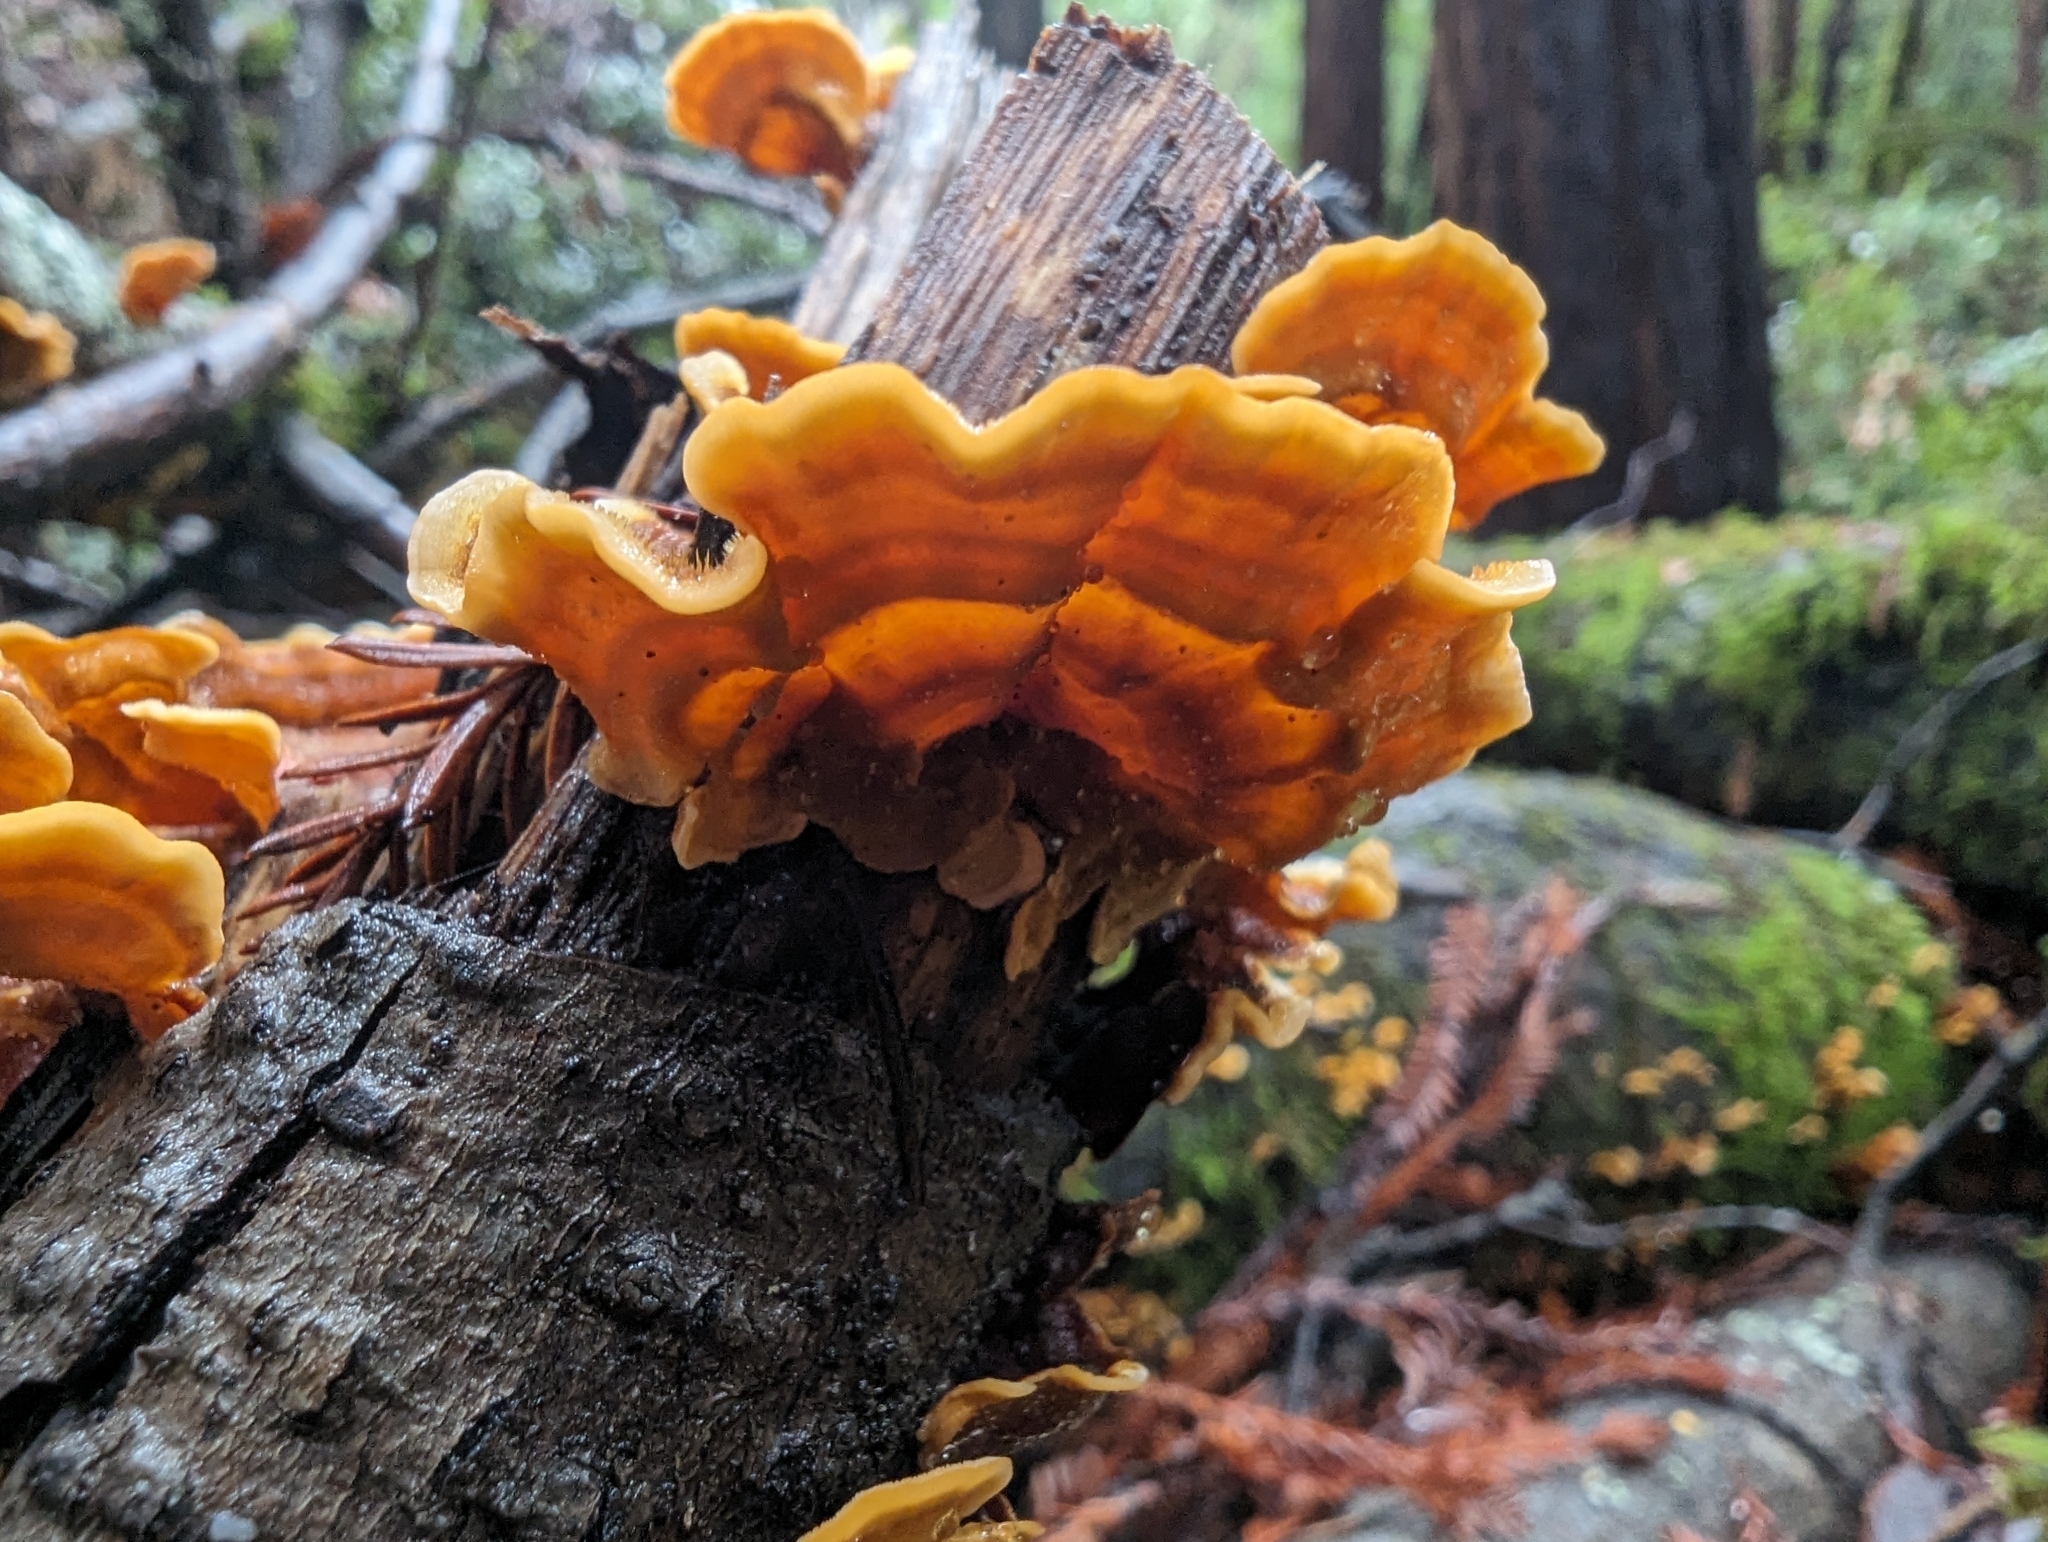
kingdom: Fungi
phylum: Basidiomycota
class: Agaricomycetes
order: Russulales
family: Stereaceae
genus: Stereum
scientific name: Stereum hirsutum
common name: Hairy curtain crust
